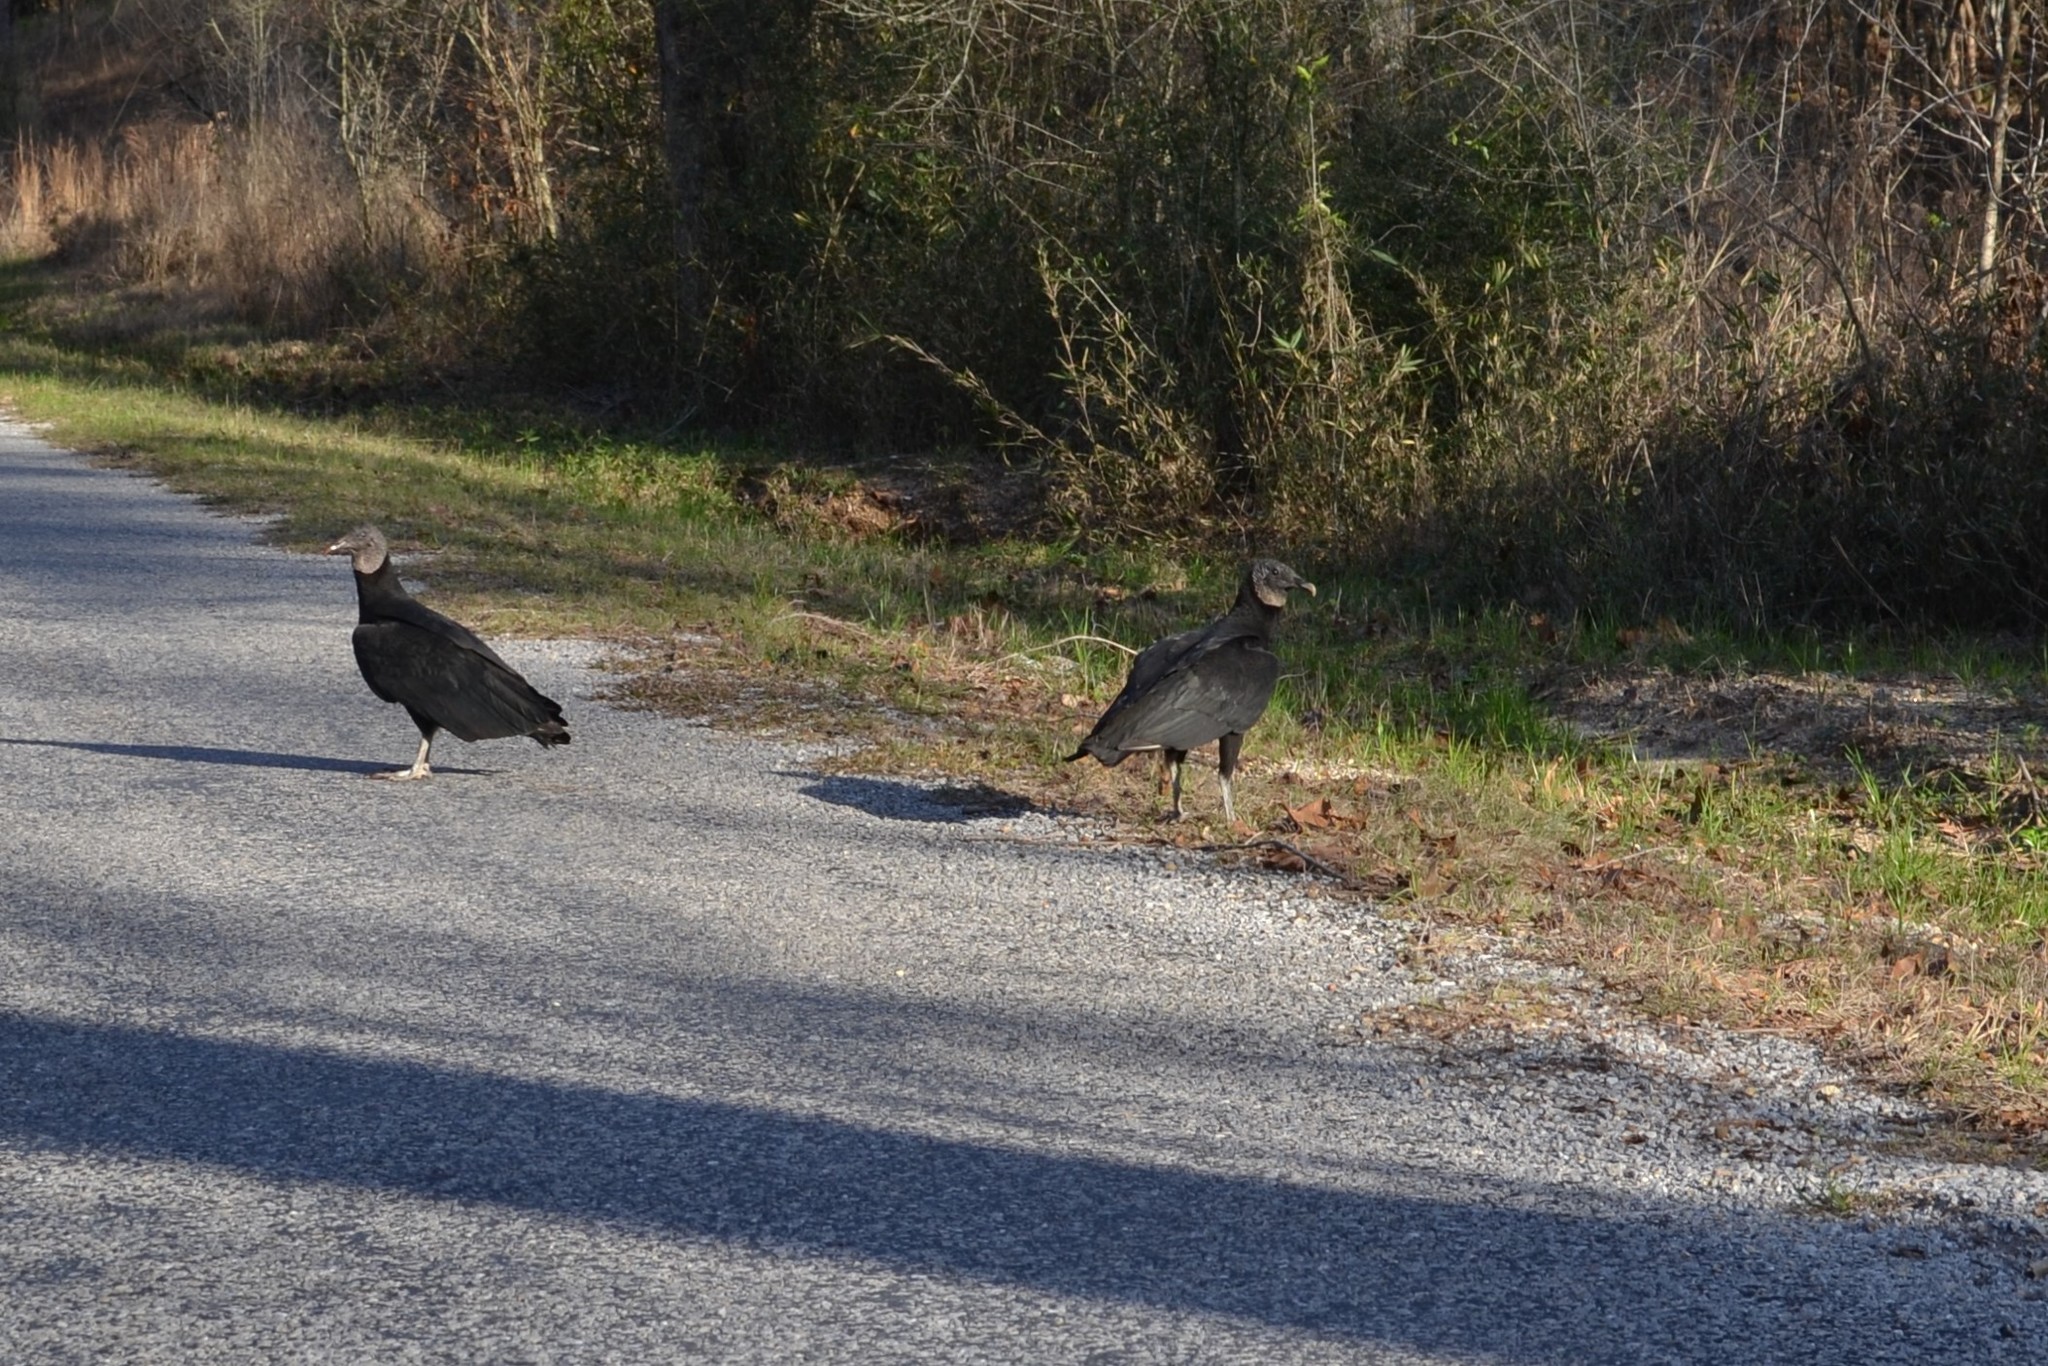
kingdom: Animalia
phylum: Chordata
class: Aves
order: Accipitriformes
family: Cathartidae
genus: Coragyps
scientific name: Coragyps atratus
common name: Black vulture
